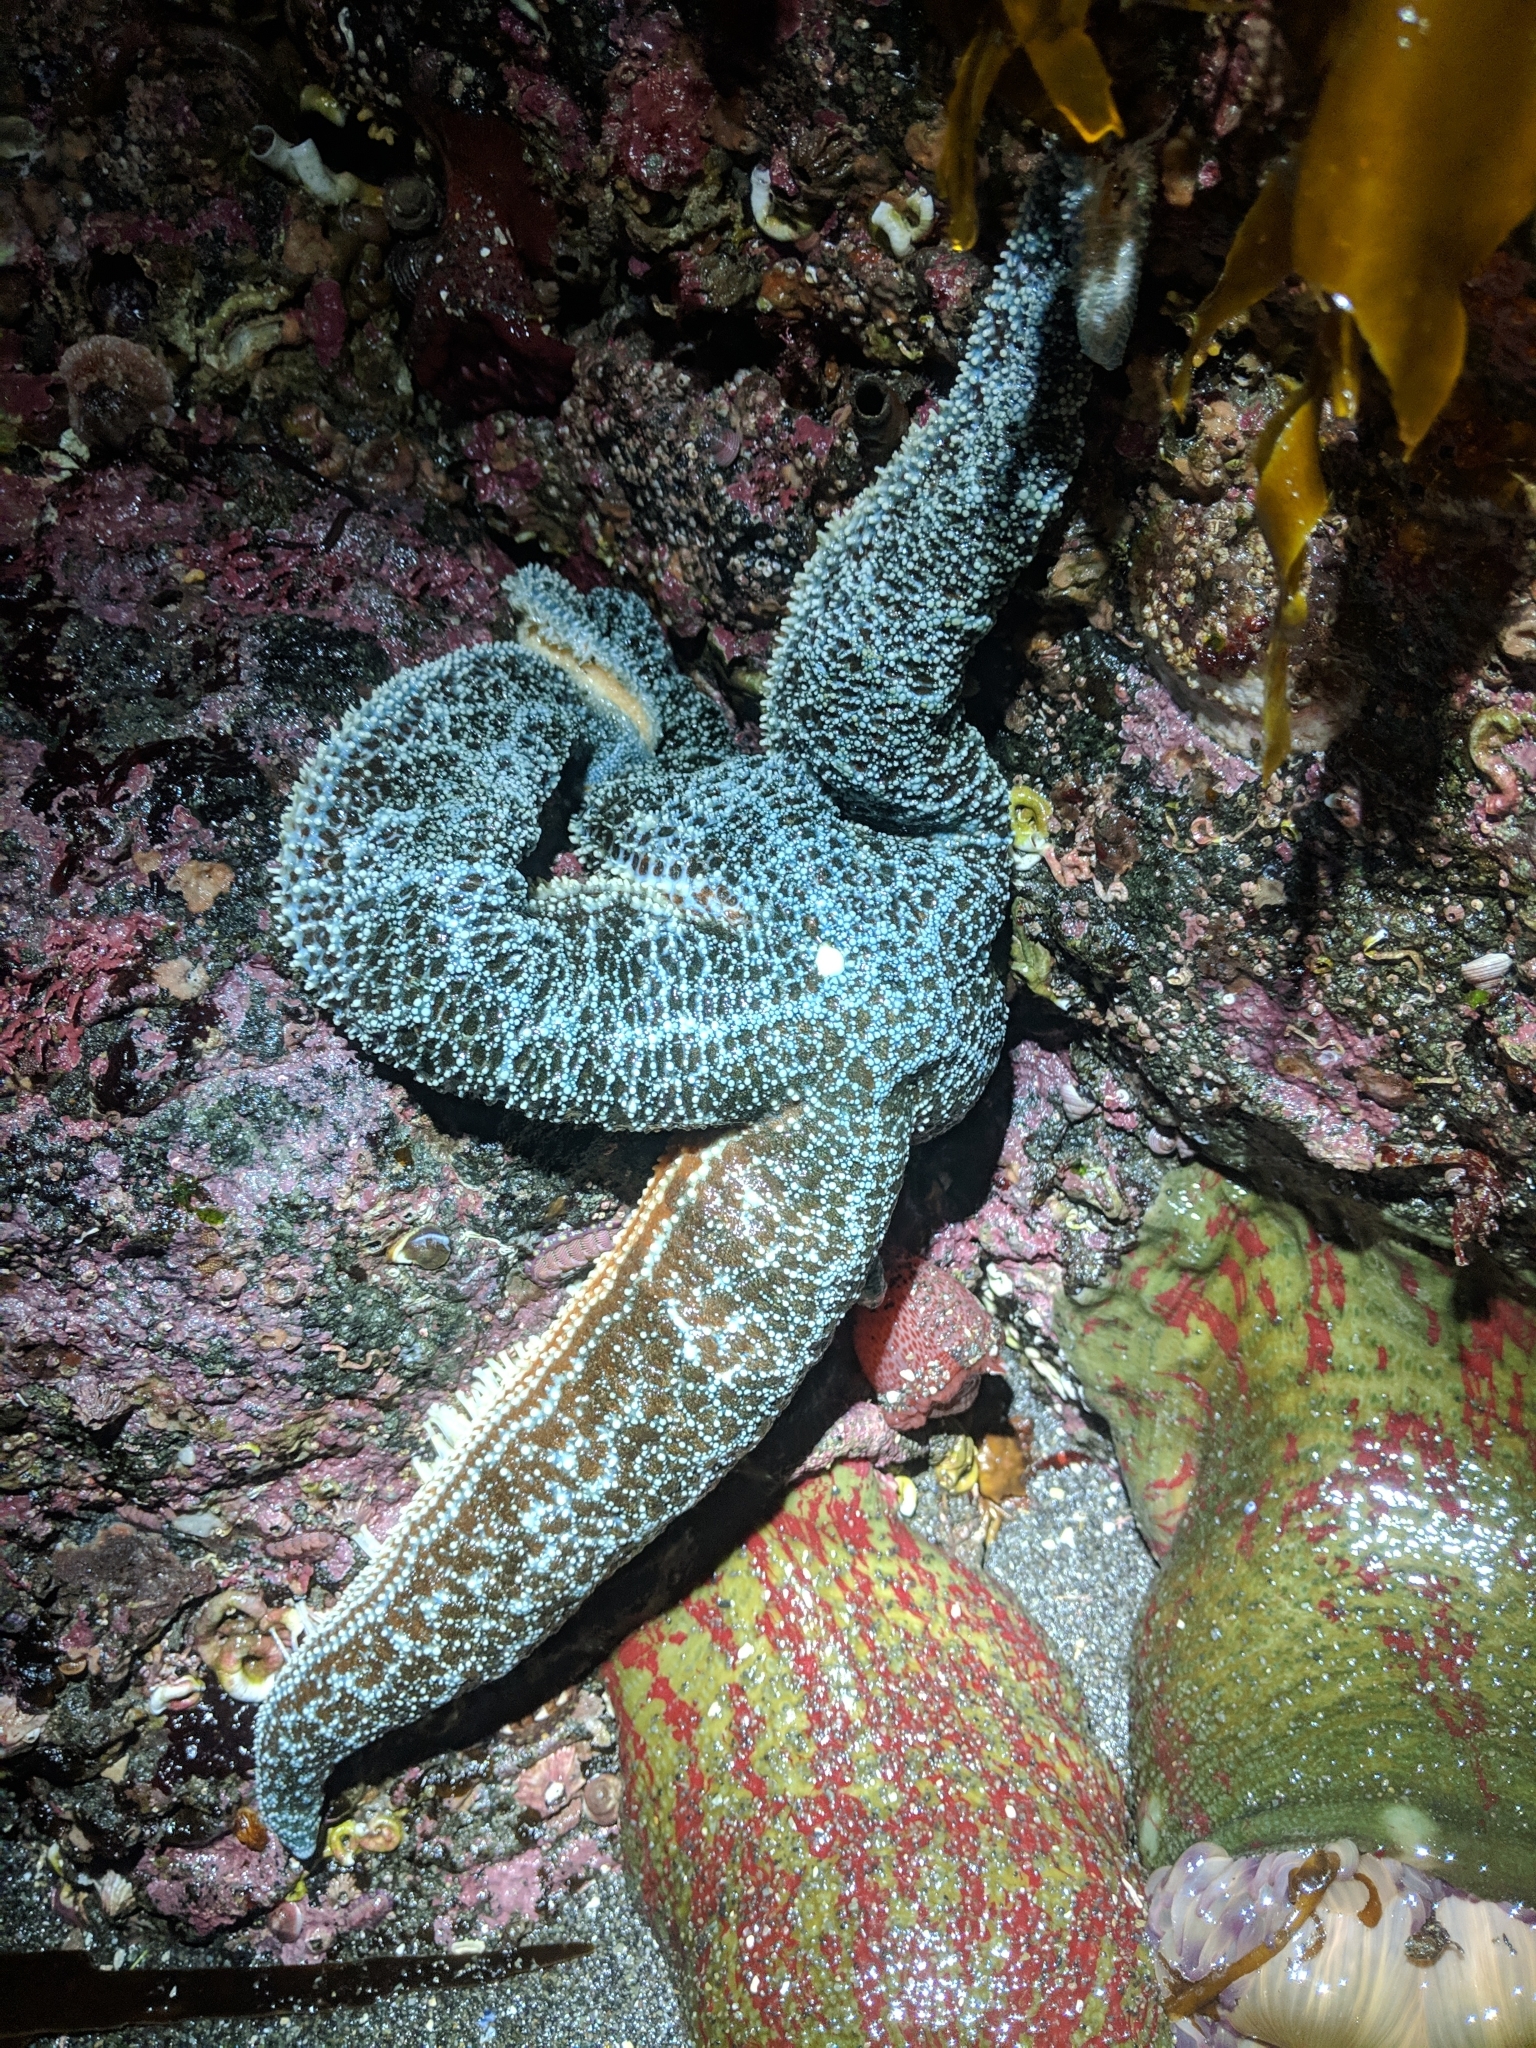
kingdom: Animalia
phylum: Echinodermata
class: Asteroidea
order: Forcipulatida
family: Asteriidae
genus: Evasterias
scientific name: Evasterias troschelii
